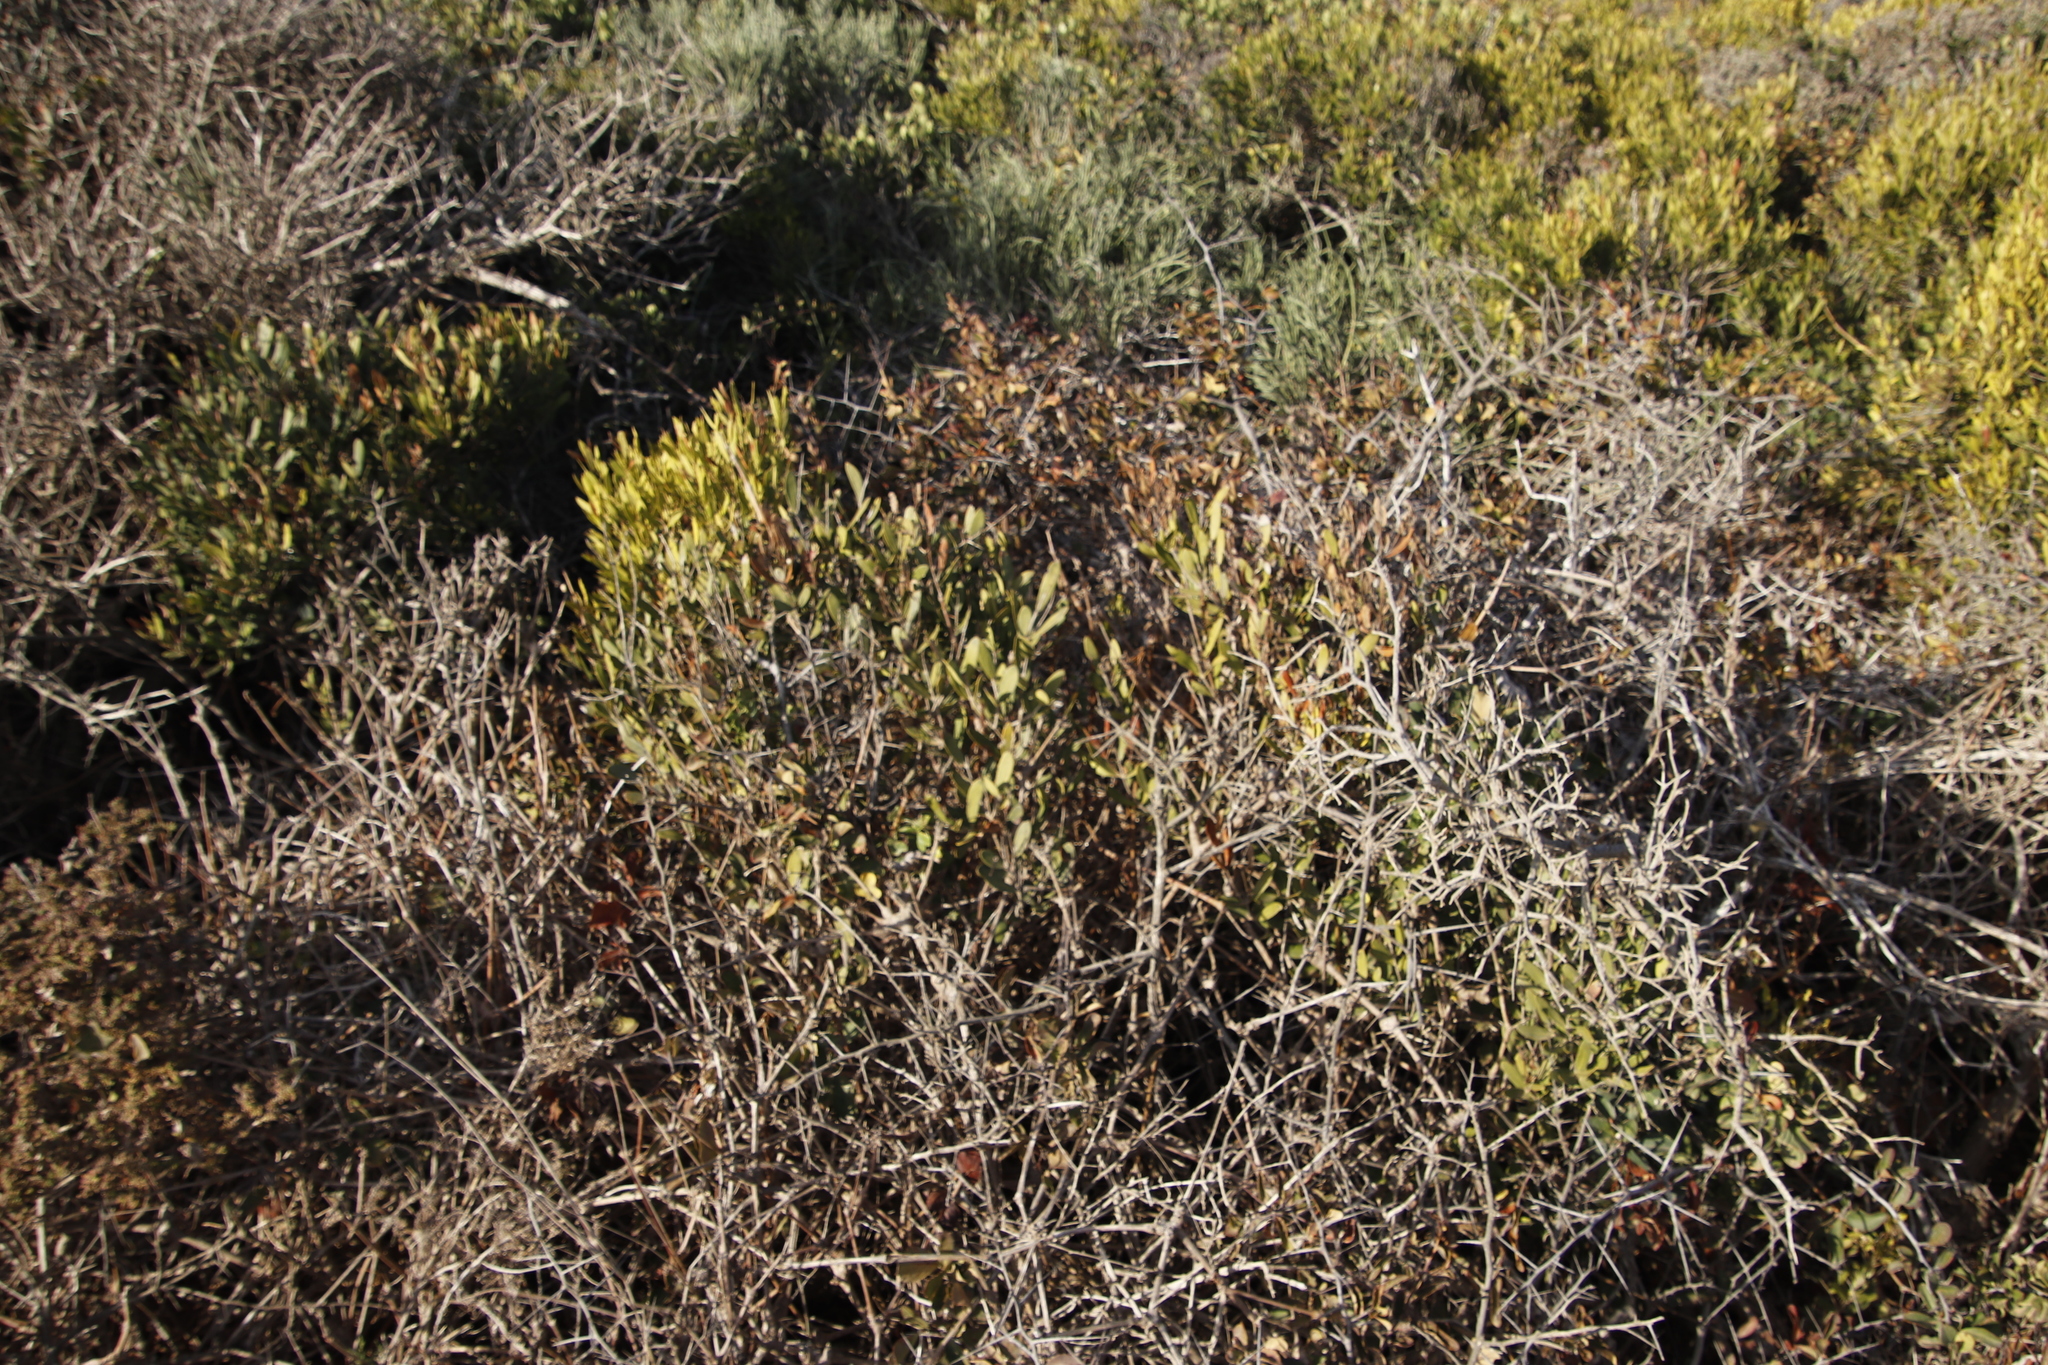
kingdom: Plantae
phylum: Tracheophyta
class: Magnoliopsida
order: Lamiales
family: Oleaceae
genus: Olea
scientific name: Olea exasperata
